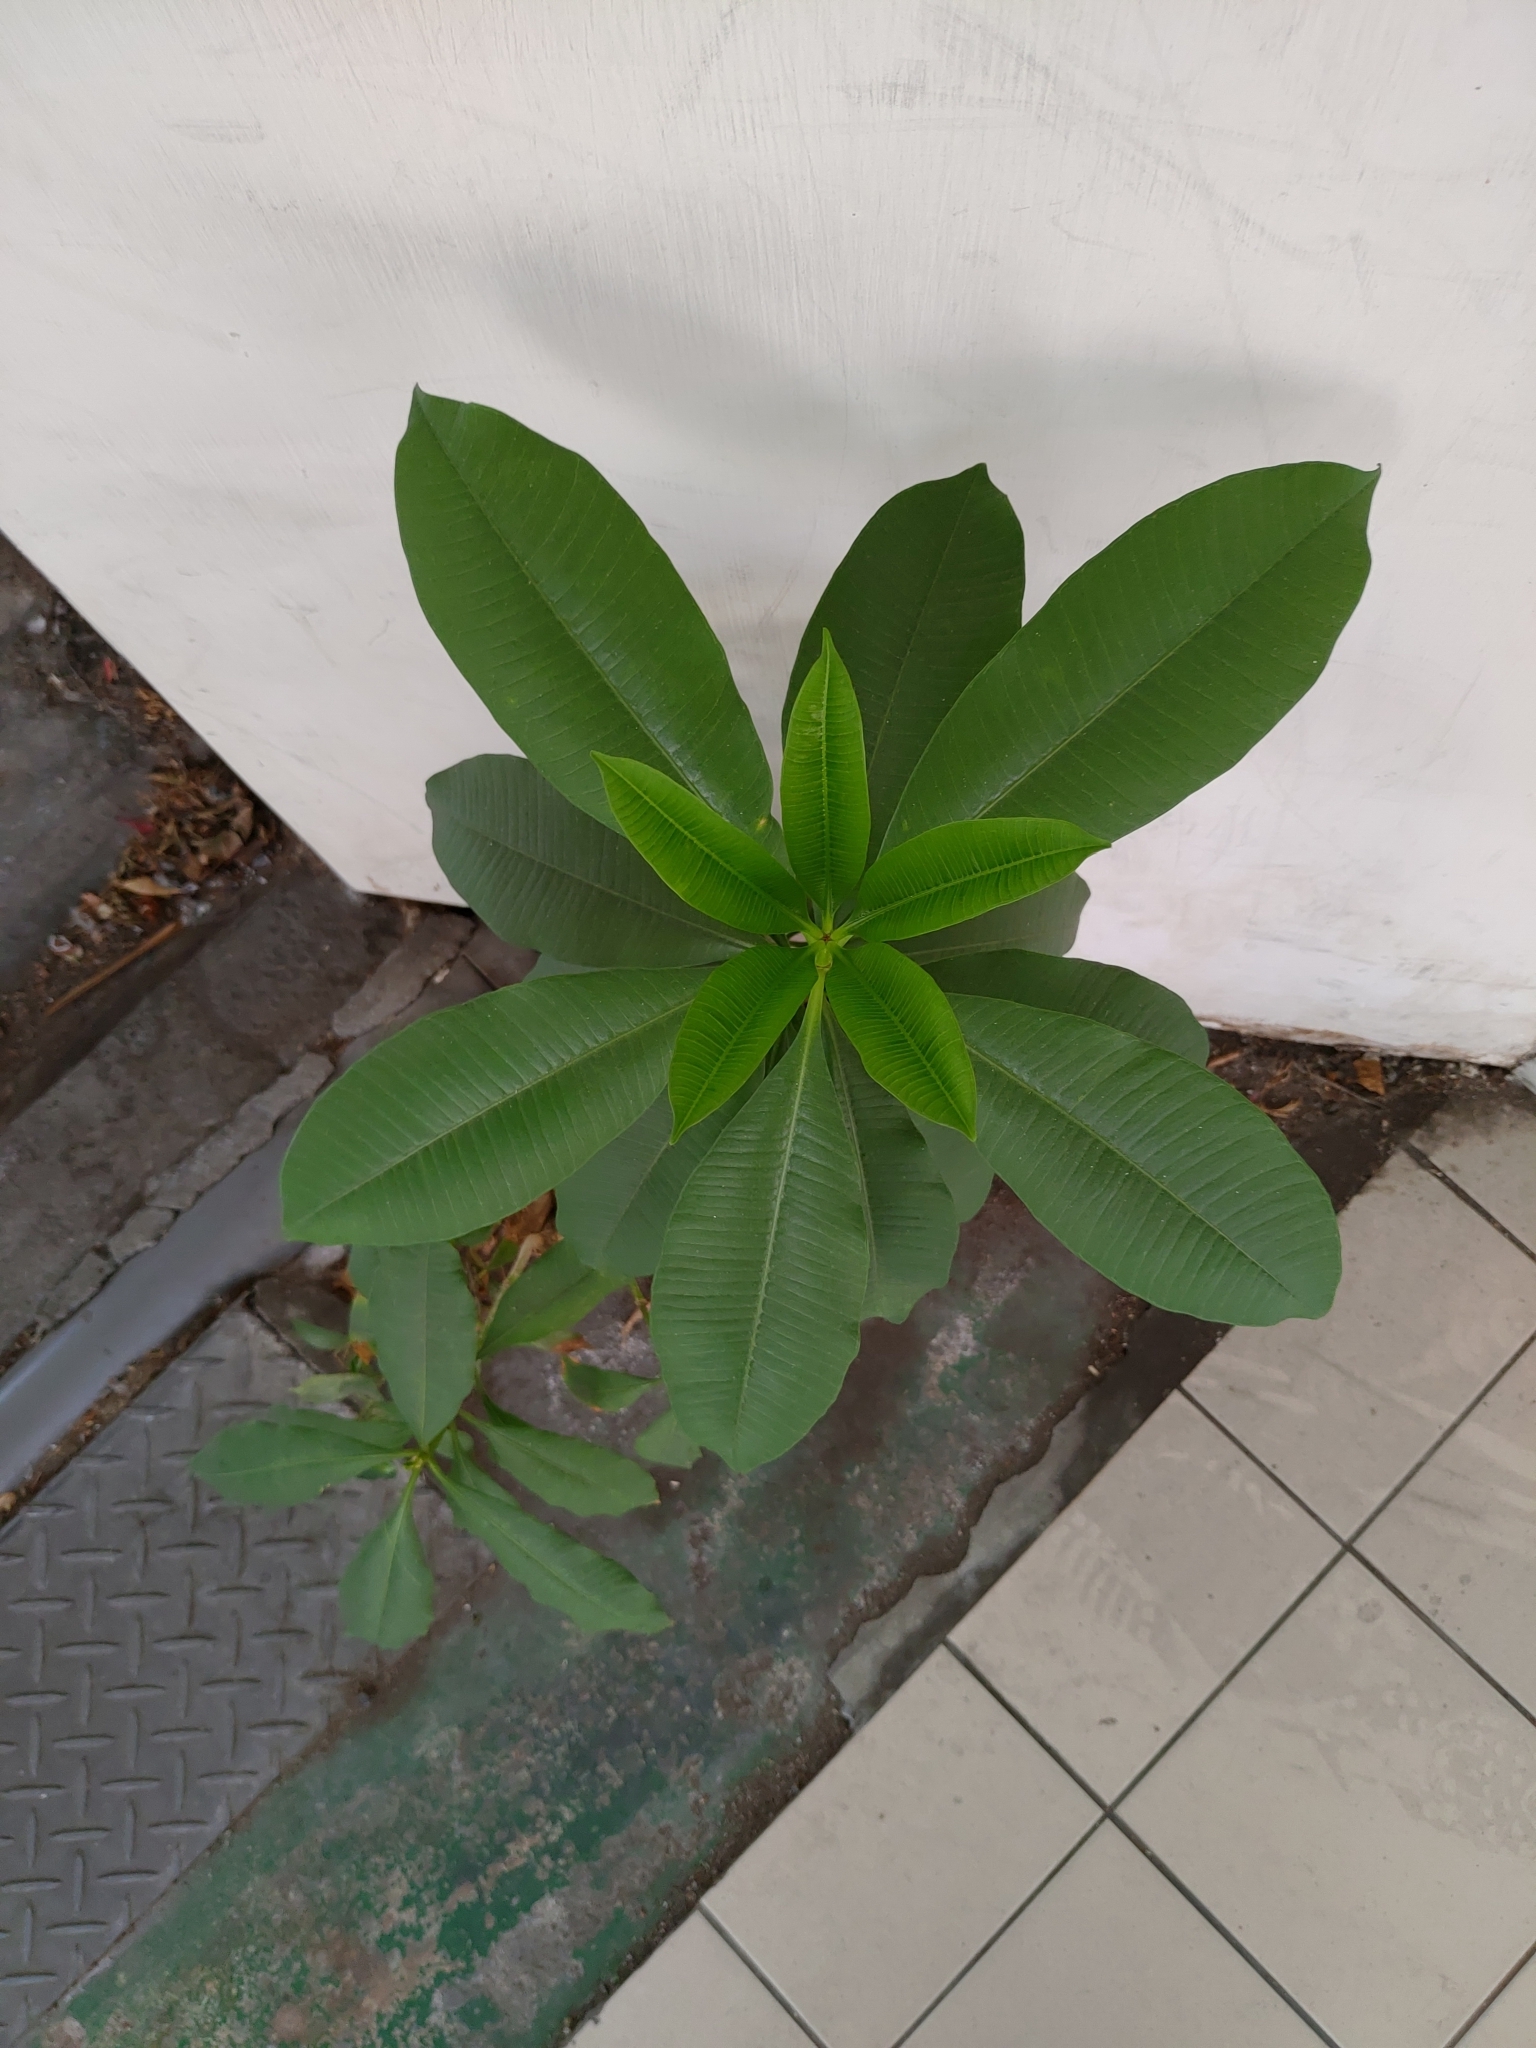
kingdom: Plantae
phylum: Tracheophyta
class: Magnoliopsida
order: Gentianales
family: Apocynaceae
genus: Alstonia
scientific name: Alstonia scholaris
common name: White cheesewood
